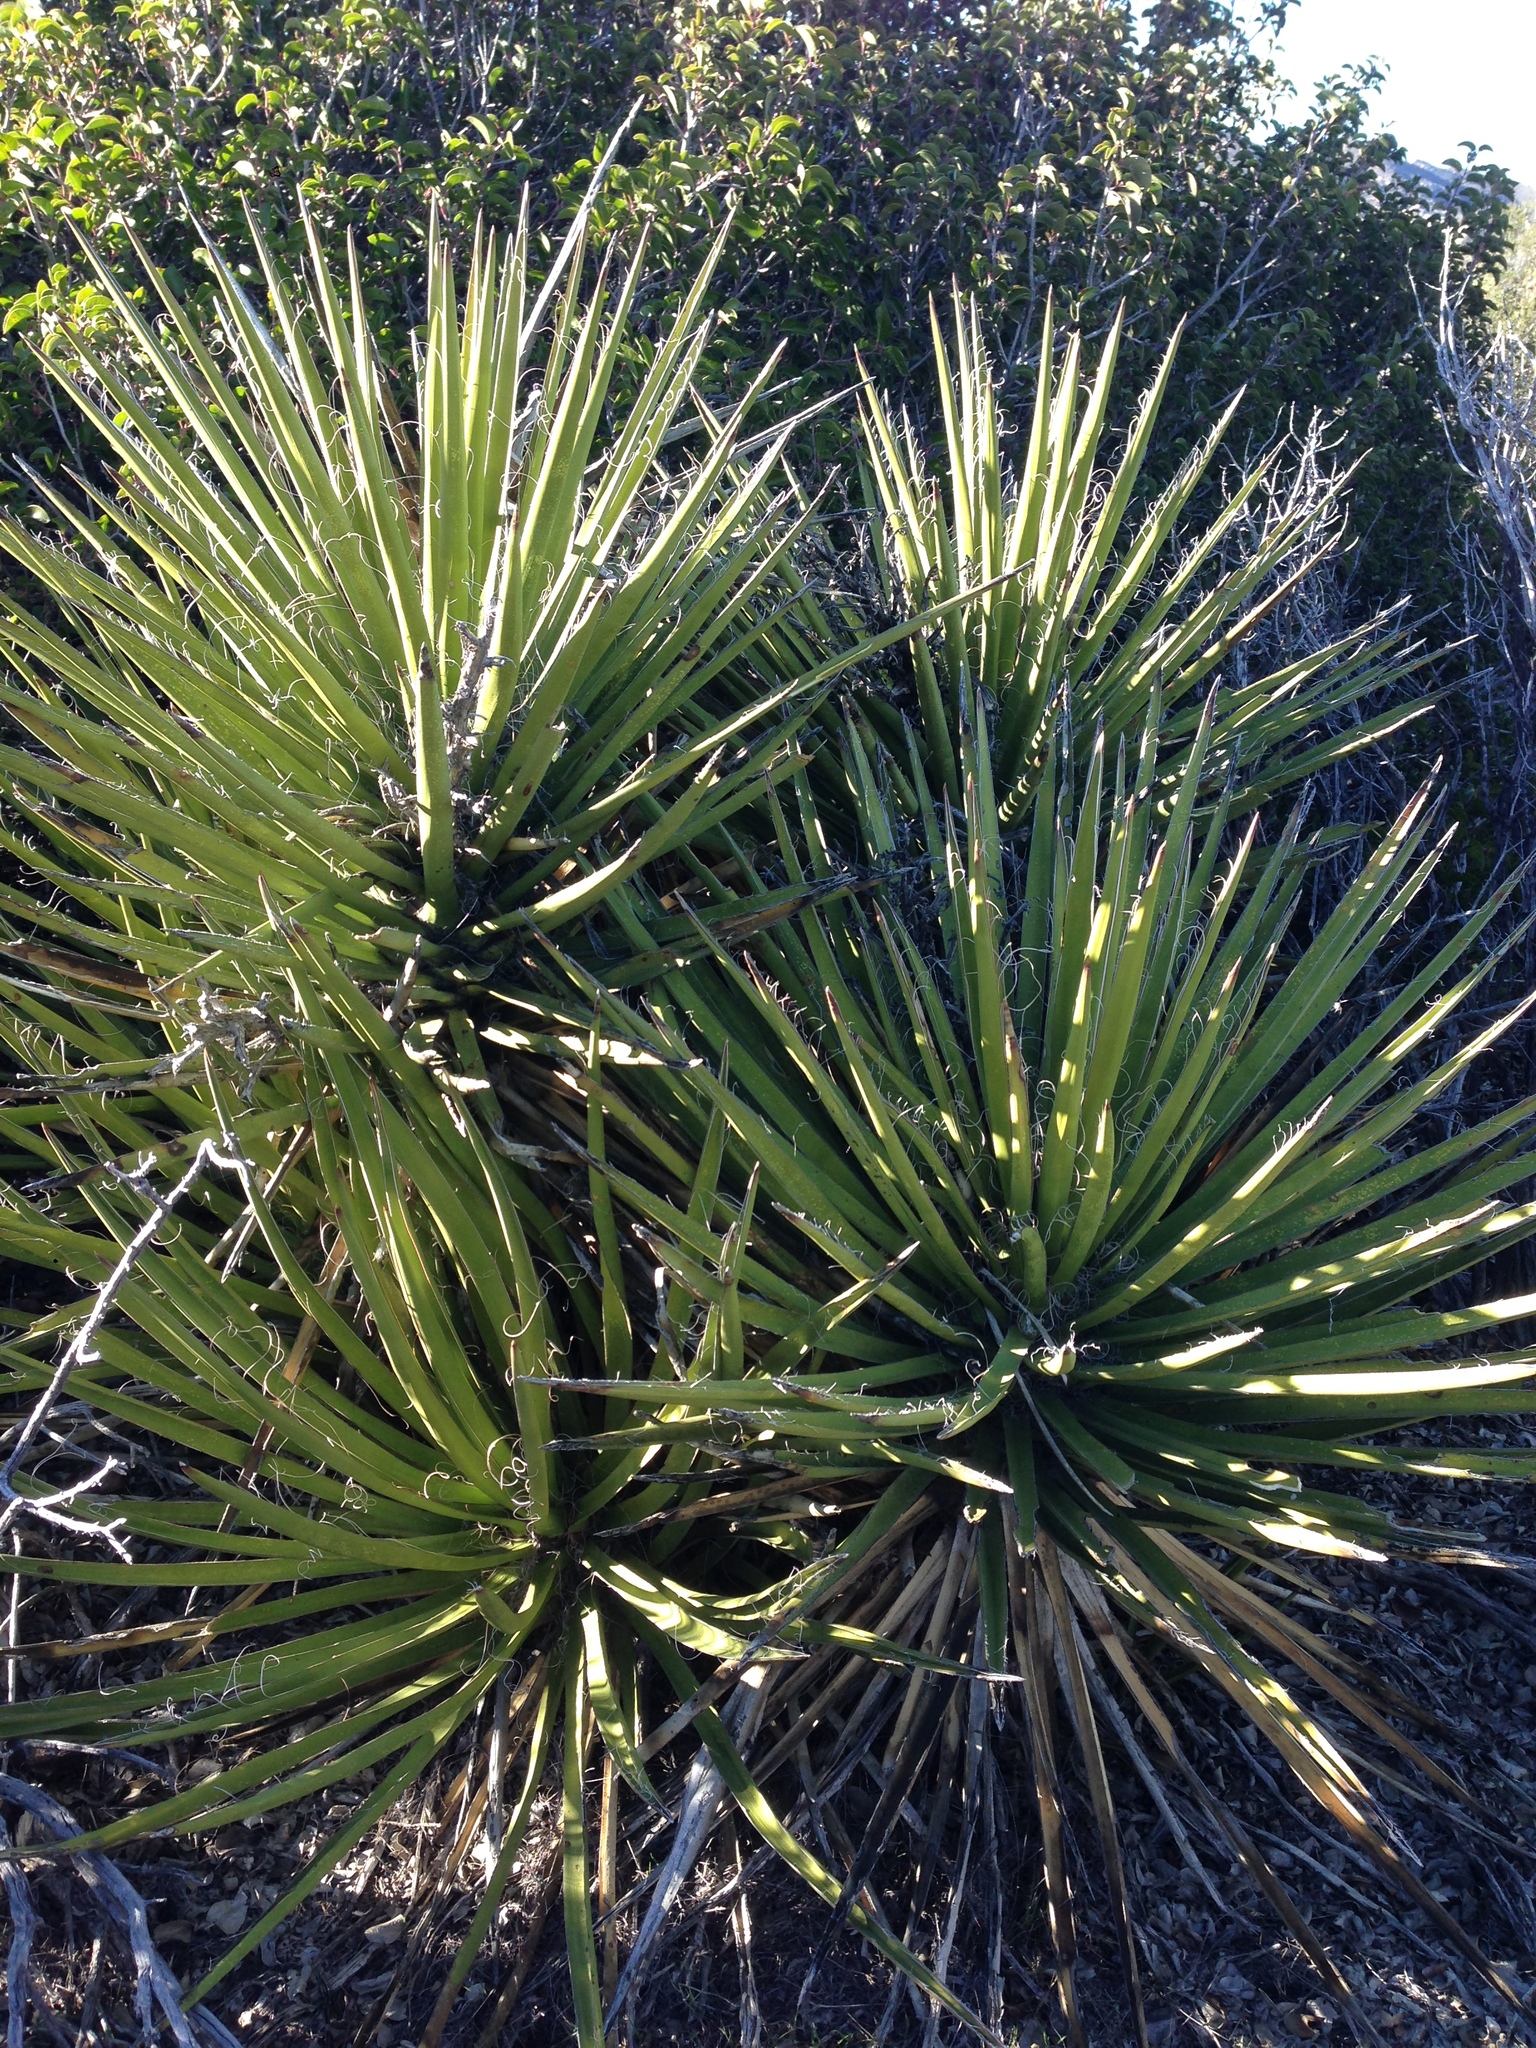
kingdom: Plantae
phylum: Tracheophyta
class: Liliopsida
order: Asparagales
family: Asparagaceae
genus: Yucca
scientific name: Yucca schidigera
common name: Mojave yucca
